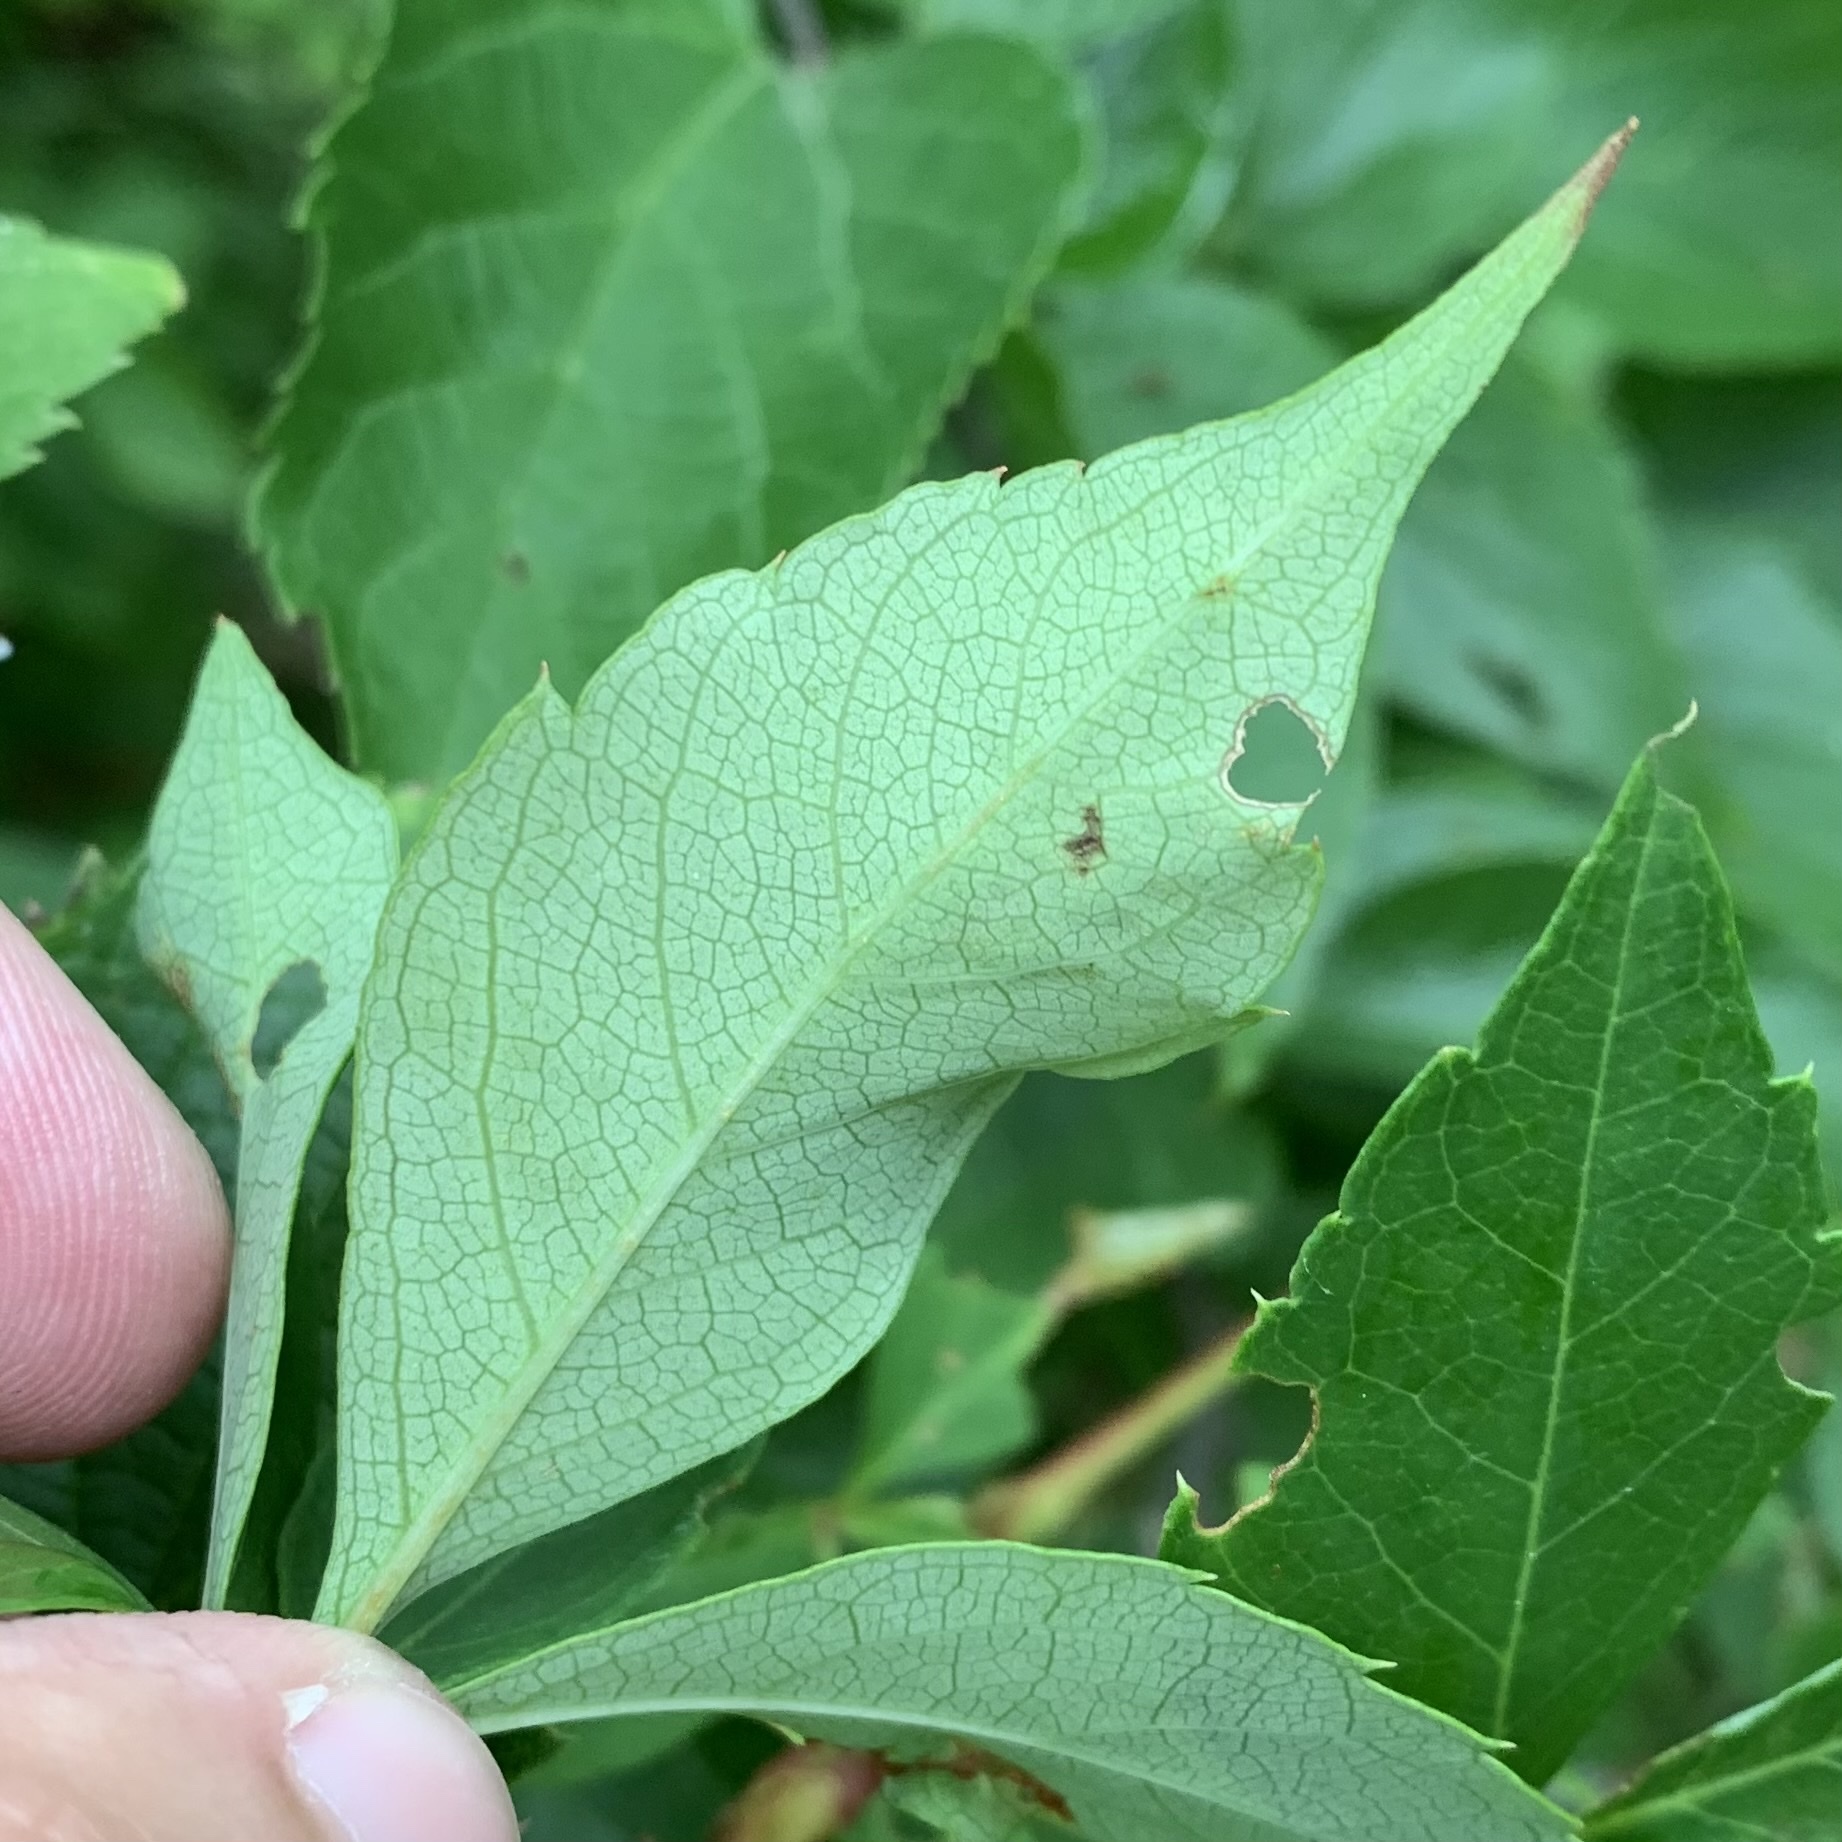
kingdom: Animalia
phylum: Arthropoda
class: Insecta
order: Lepidoptera
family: Gracillariidae
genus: Phyllocnistis
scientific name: Phyllocnistis vitegenella
